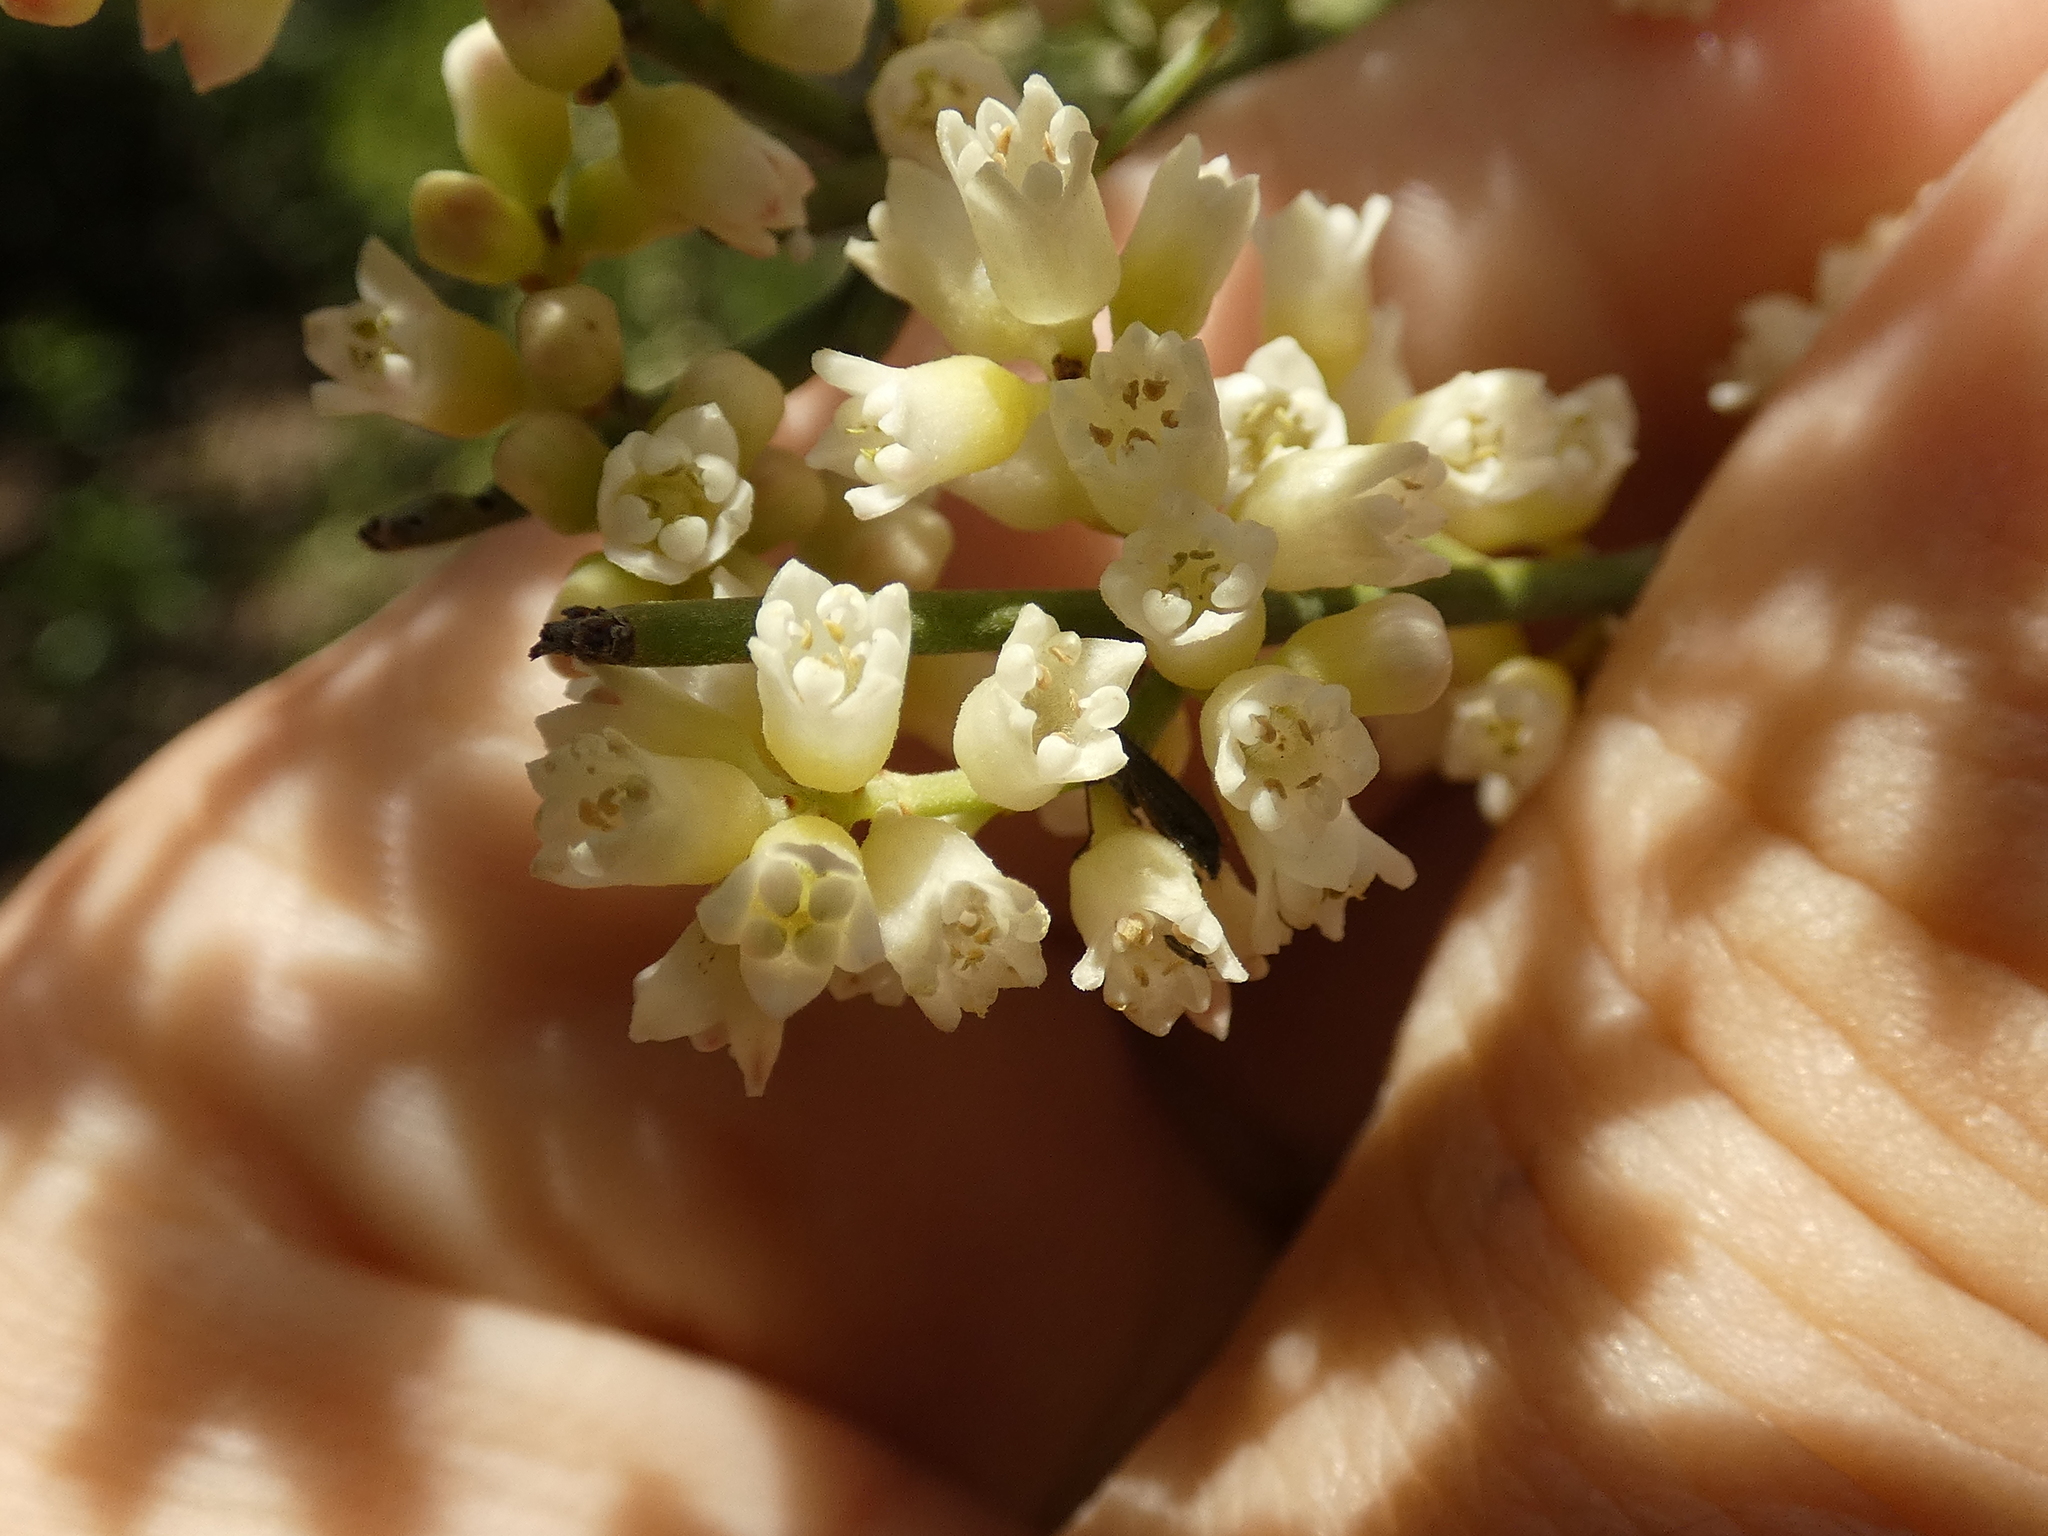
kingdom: Plantae
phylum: Tracheophyta
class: Magnoliopsida
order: Rosales
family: Rhamnaceae
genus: Retanilla
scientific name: Retanilla ephedra
